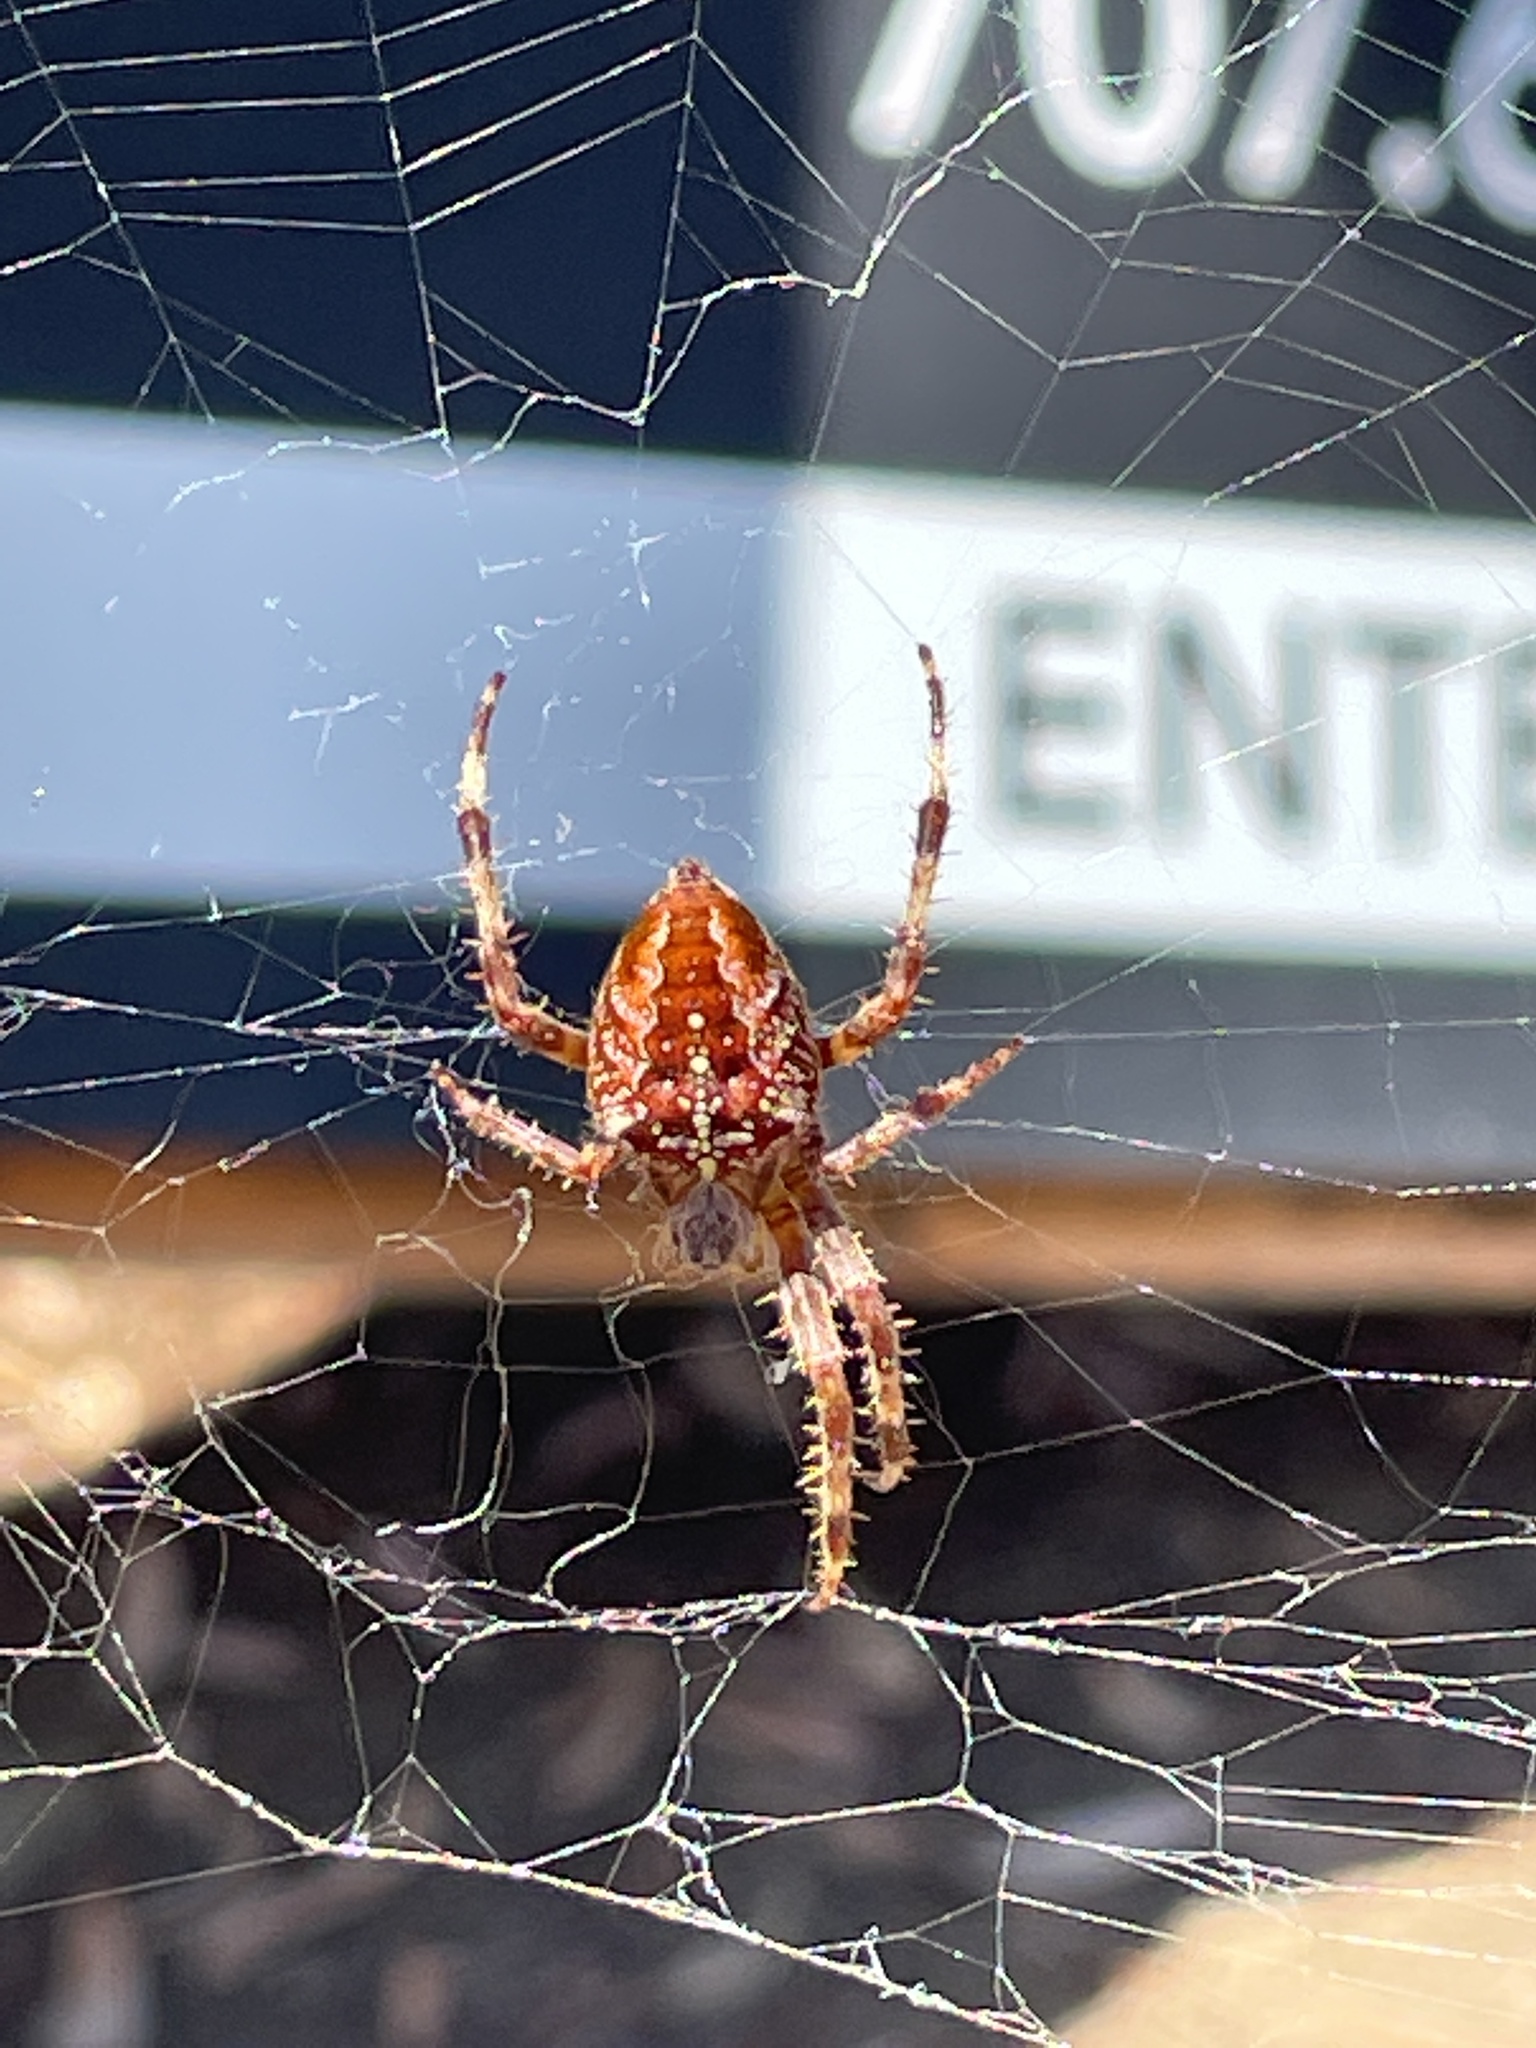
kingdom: Animalia
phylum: Arthropoda
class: Arachnida
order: Araneae
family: Araneidae
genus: Araneus
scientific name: Araneus diadematus
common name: Cross orbweaver
